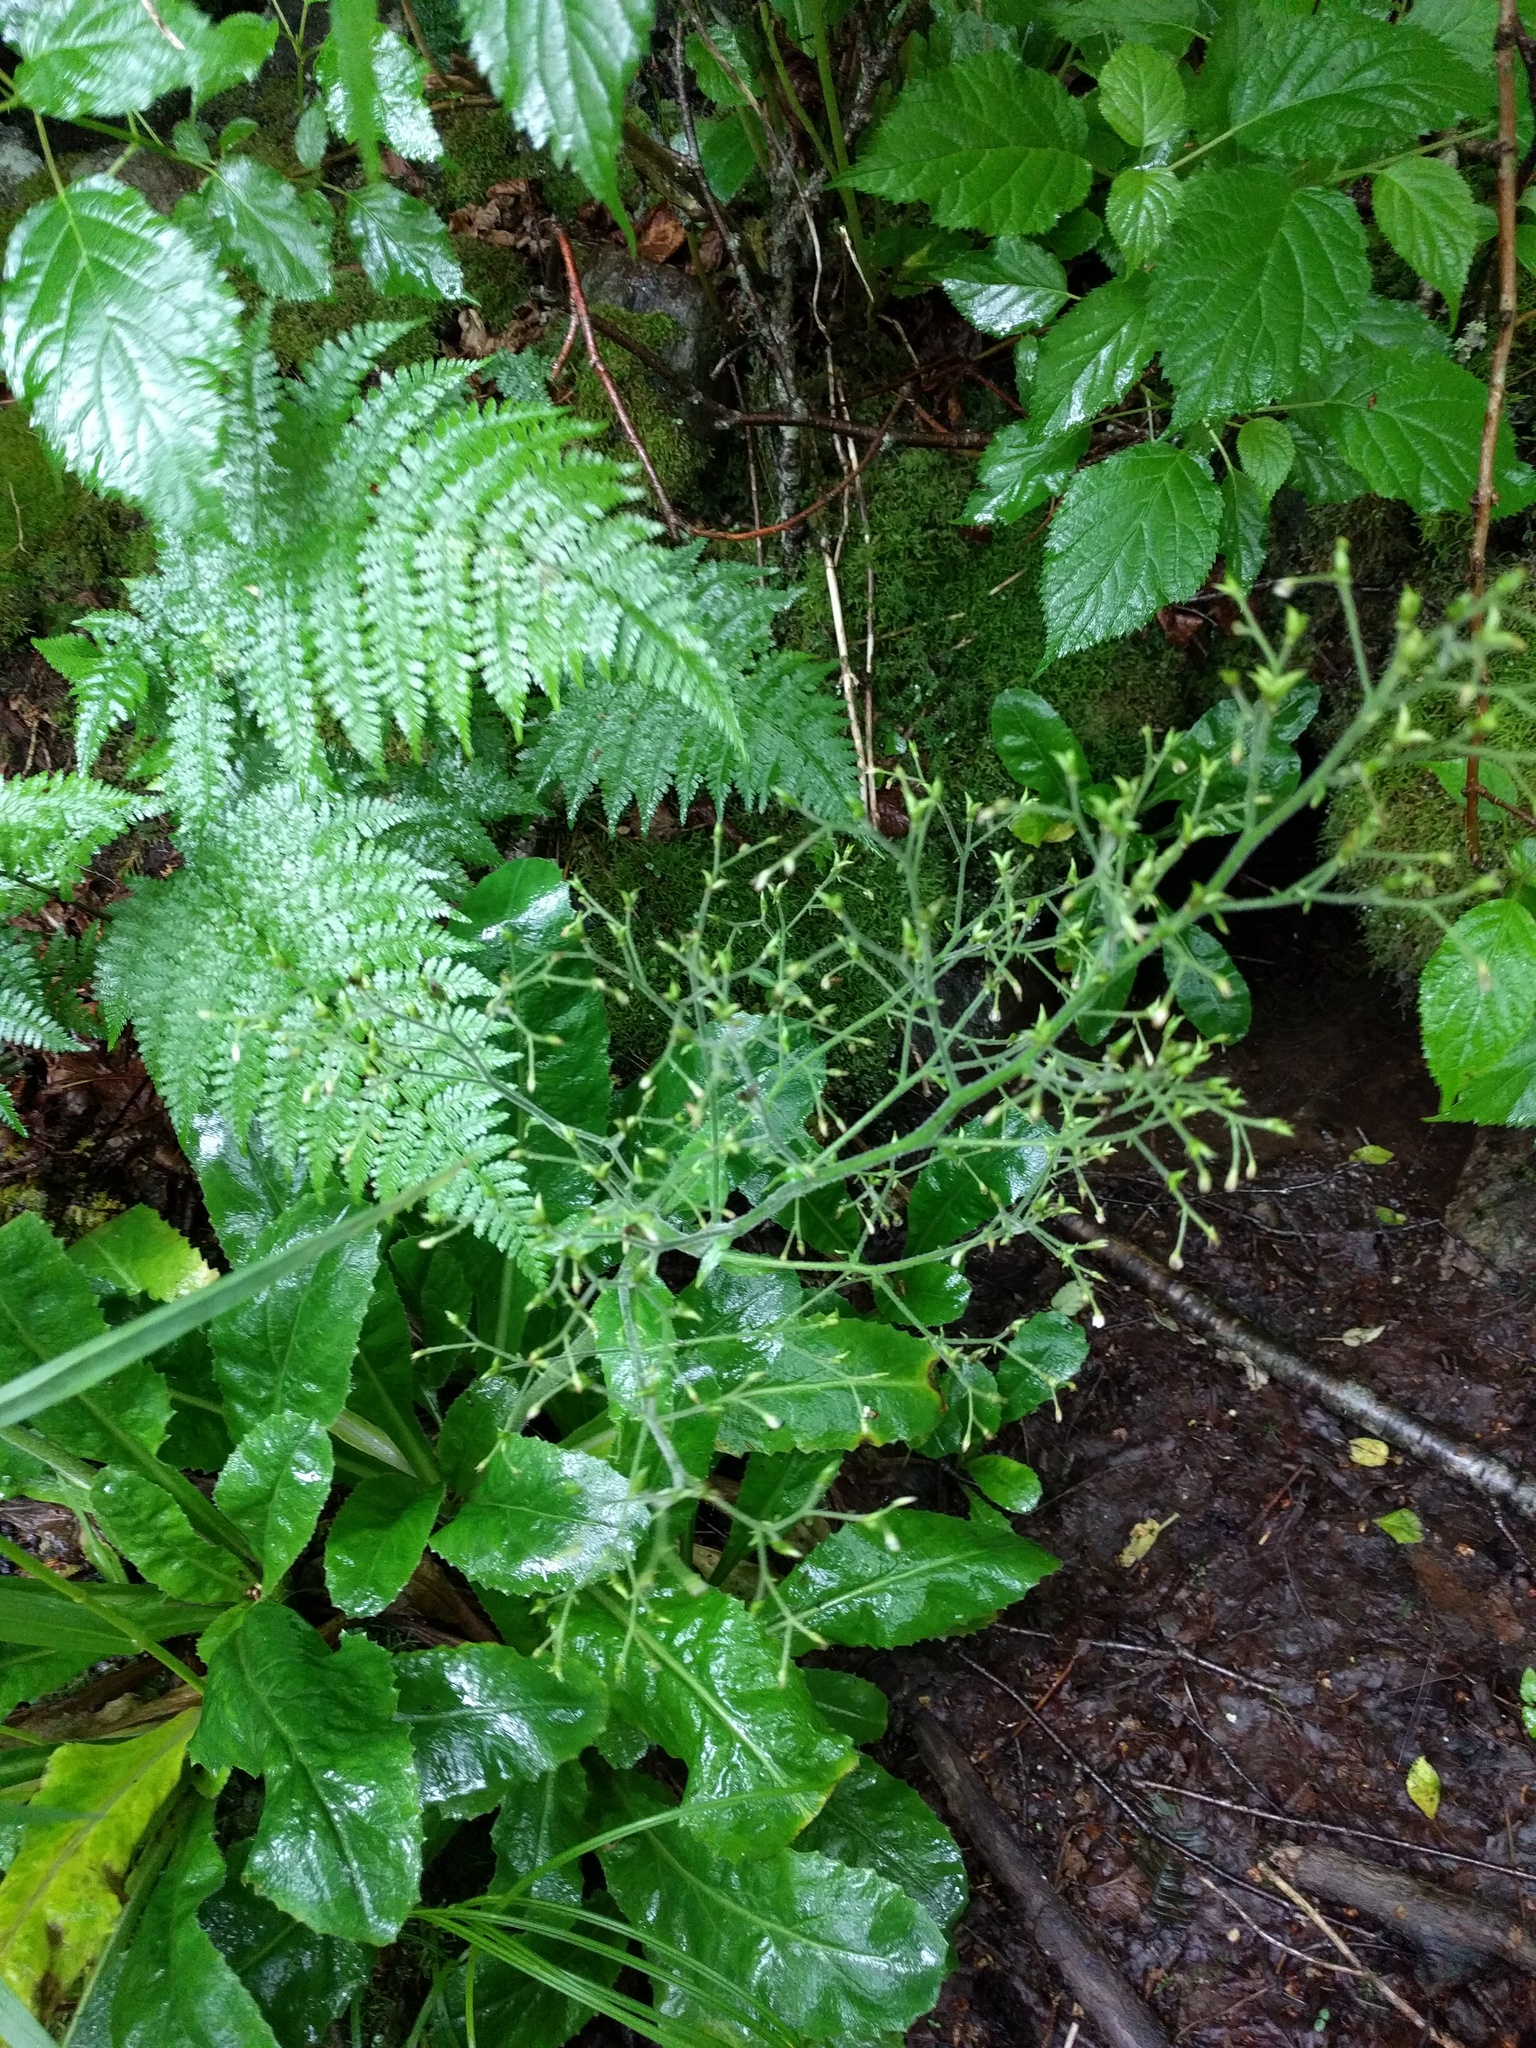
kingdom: Plantae
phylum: Tracheophyta
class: Magnoliopsida
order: Saxifragales
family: Saxifragaceae
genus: Micranthes
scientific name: Micranthes micranthidifolia
